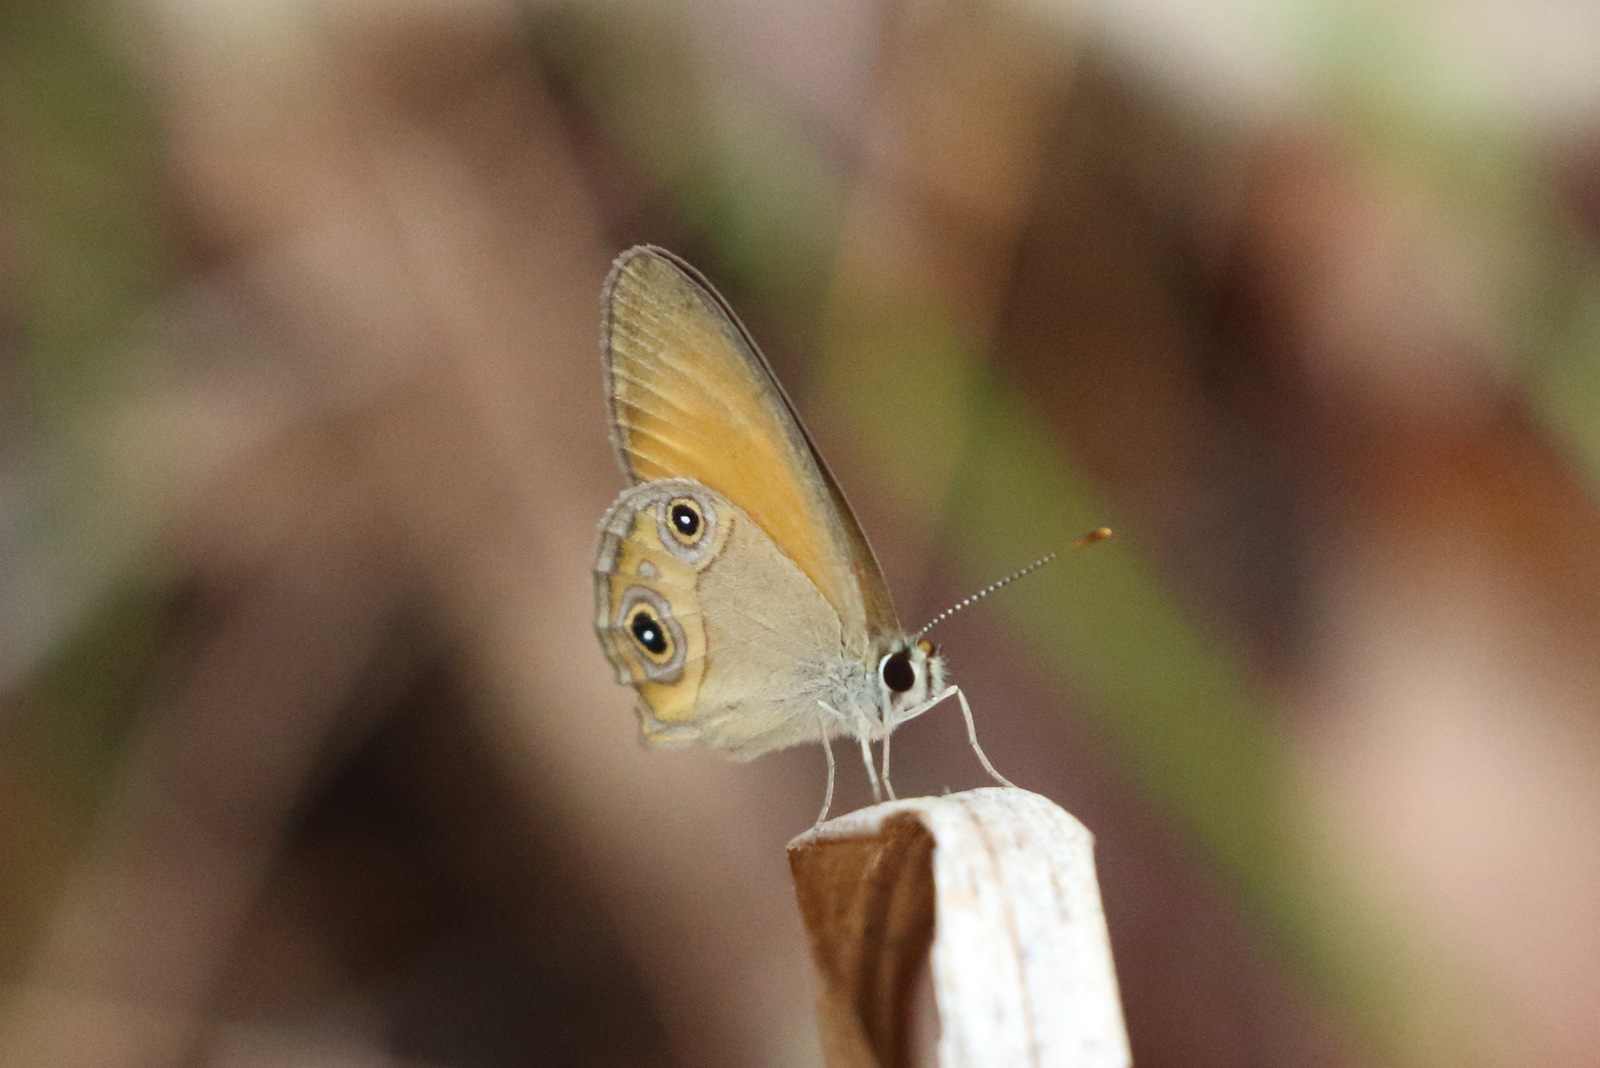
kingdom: Animalia
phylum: Arthropoda
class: Insecta
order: Lepidoptera
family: Nymphalidae
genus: Hypocysta
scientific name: Hypocysta adiante
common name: Orange ringlet
